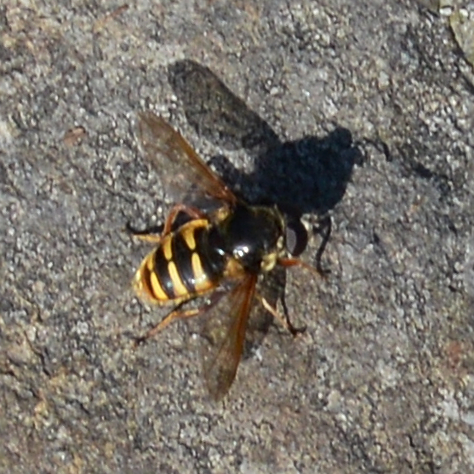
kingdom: Animalia
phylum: Arthropoda
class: Insecta
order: Diptera
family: Syrphidae
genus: Sericomyia
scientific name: Sericomyia silentis
